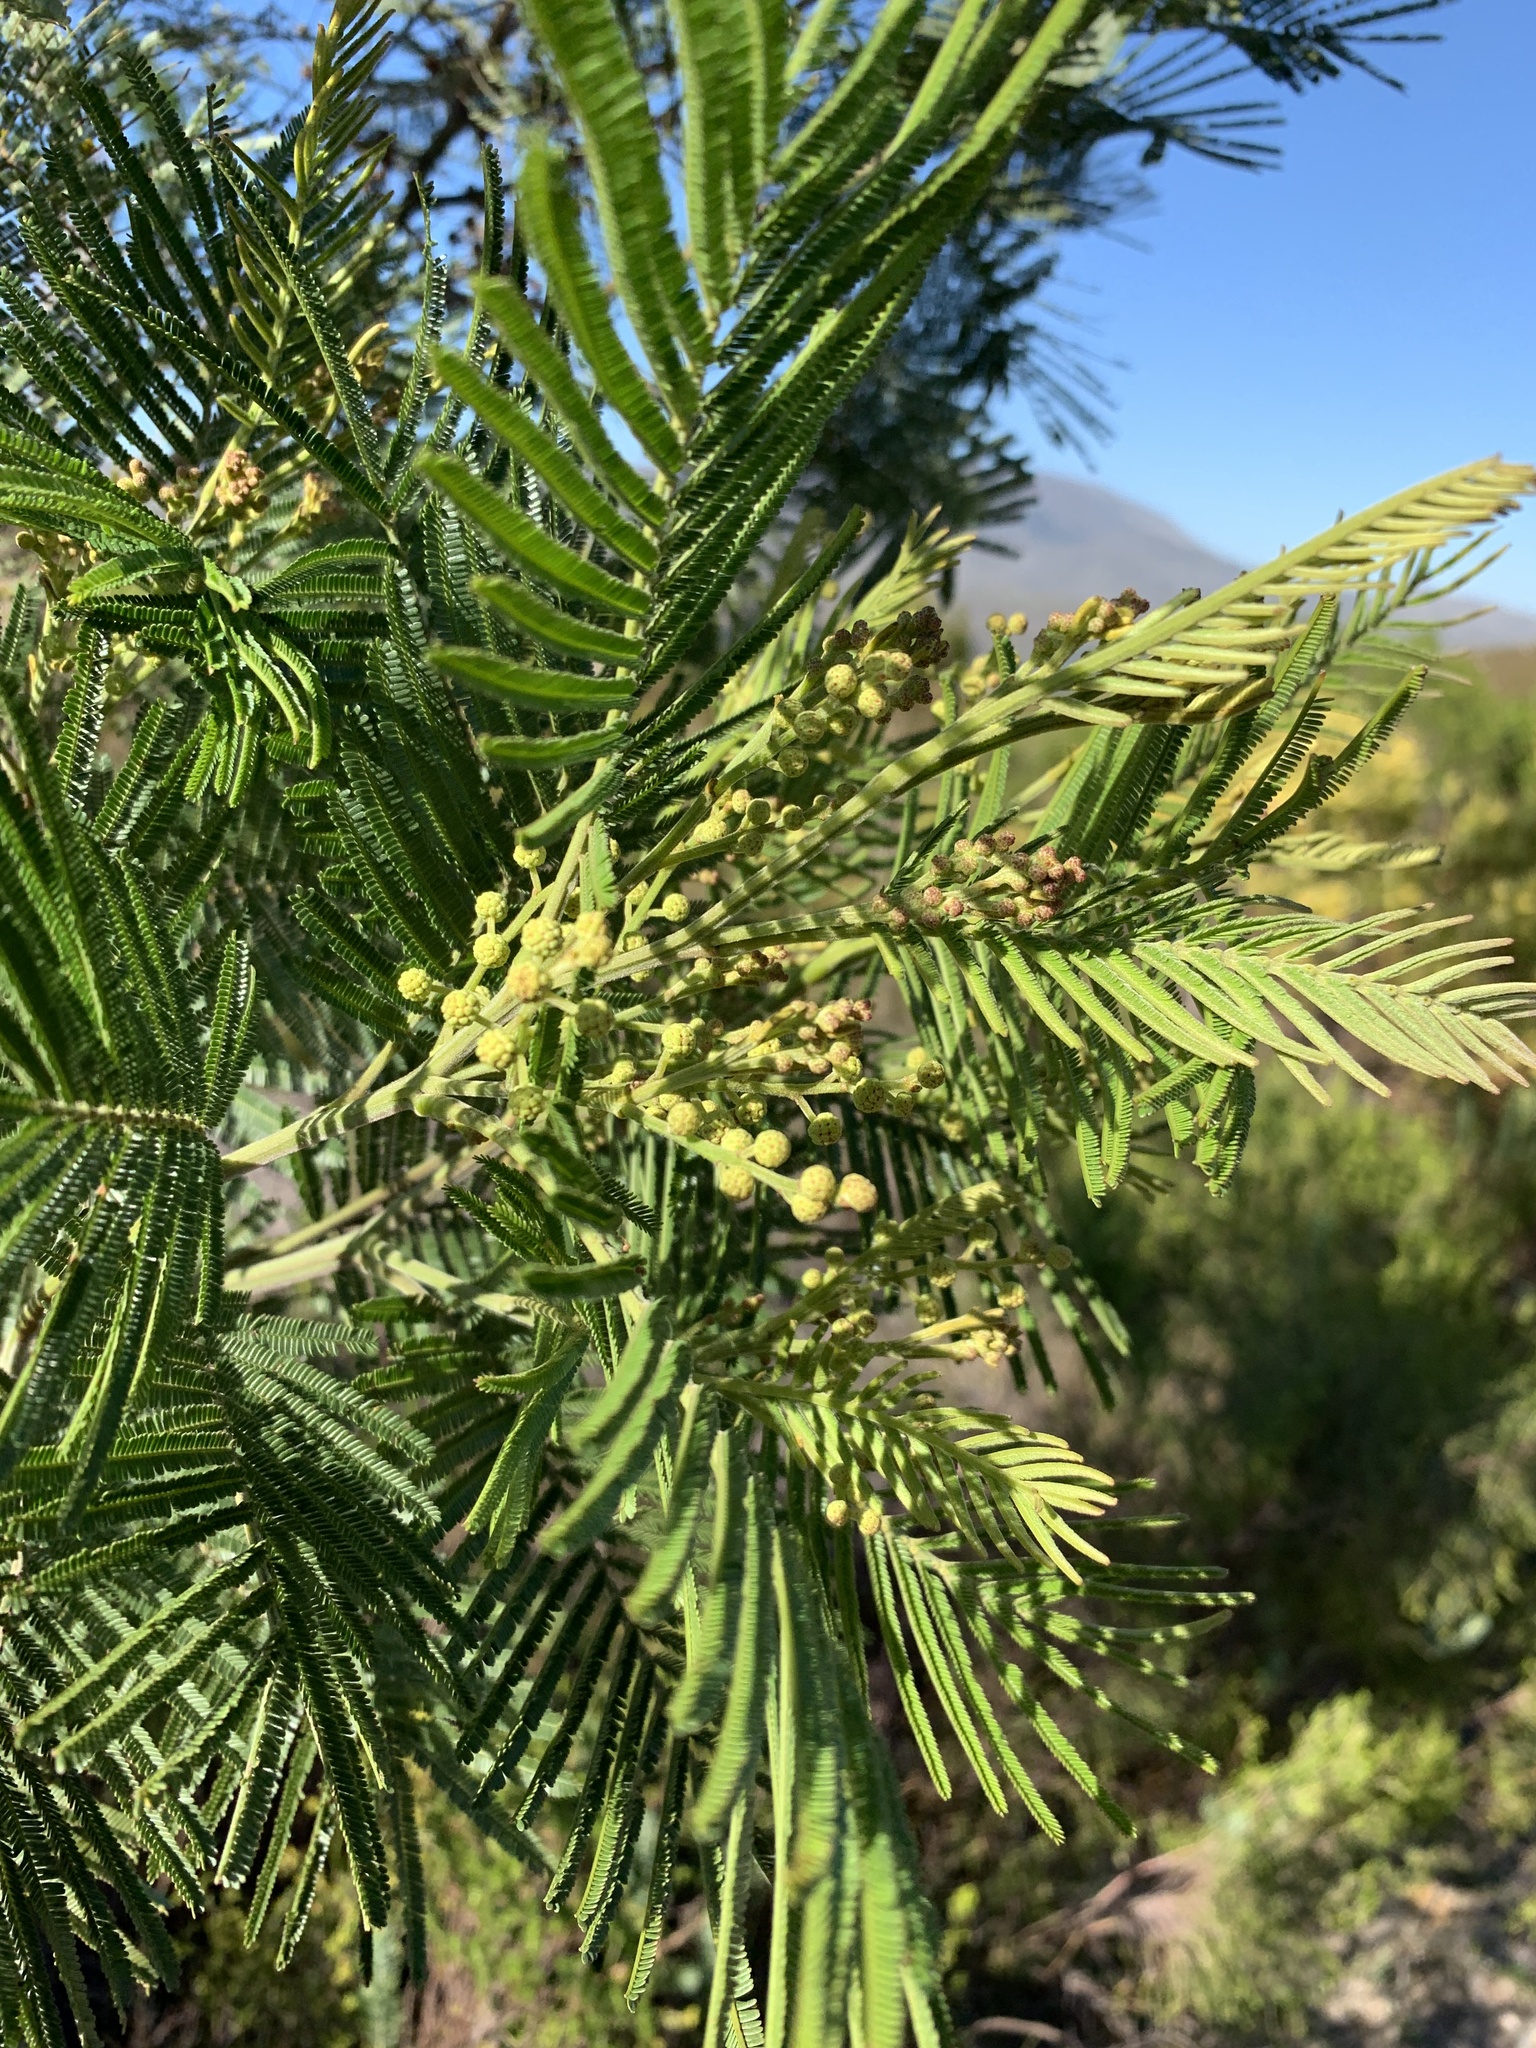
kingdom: Plantae
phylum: Tracheophyta
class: Magnoliopsida
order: Fabales
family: Fabaceae
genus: Acacia
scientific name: Acacia mearnsii
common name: Black wattle
